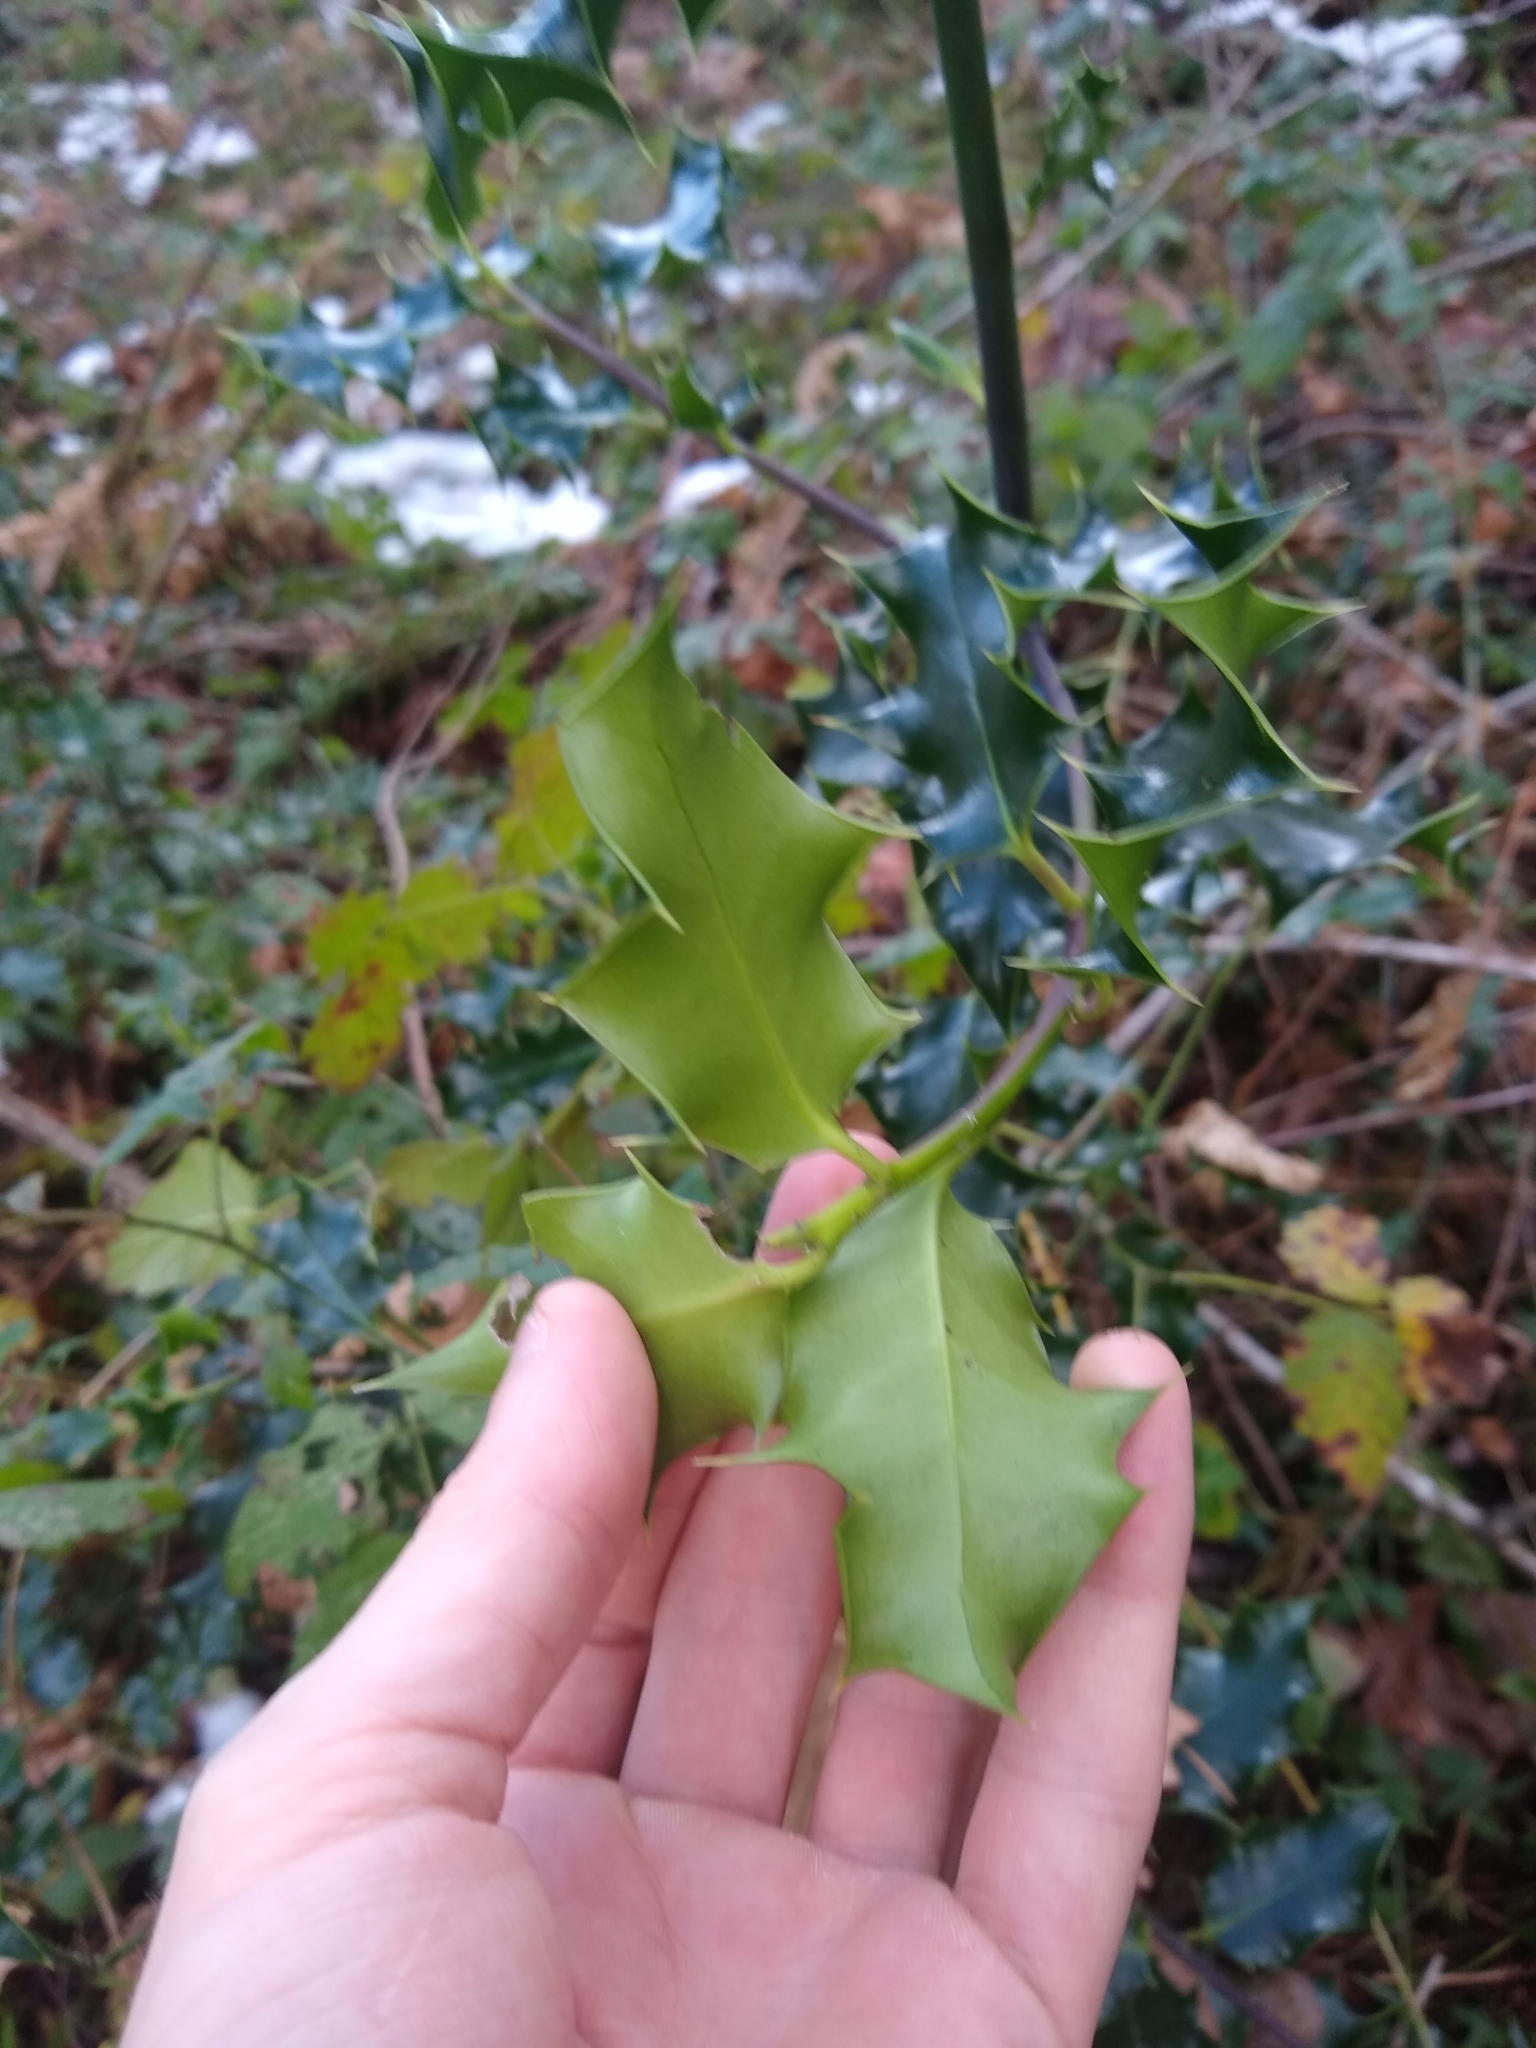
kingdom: Plantae
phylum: Tracheophyta
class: Magnoliopsida
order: Aquifoliales
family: Aquifoliaceae
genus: Ilex
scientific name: Ilex aquifolium
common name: English holly
